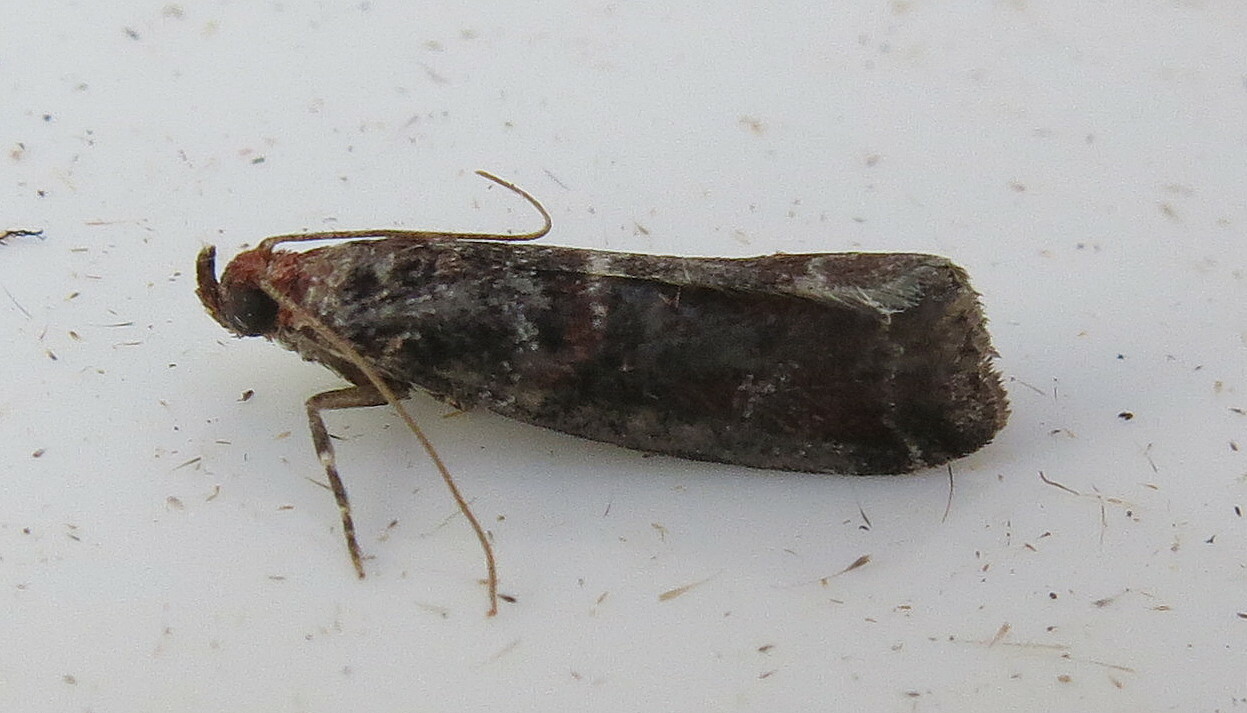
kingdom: Animalia
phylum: Arthropoda
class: Insecta
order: Lepidoptera
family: Pyralidae
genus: Acrobasis
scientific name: Acrobasis advenella
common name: Grey knot-horn
